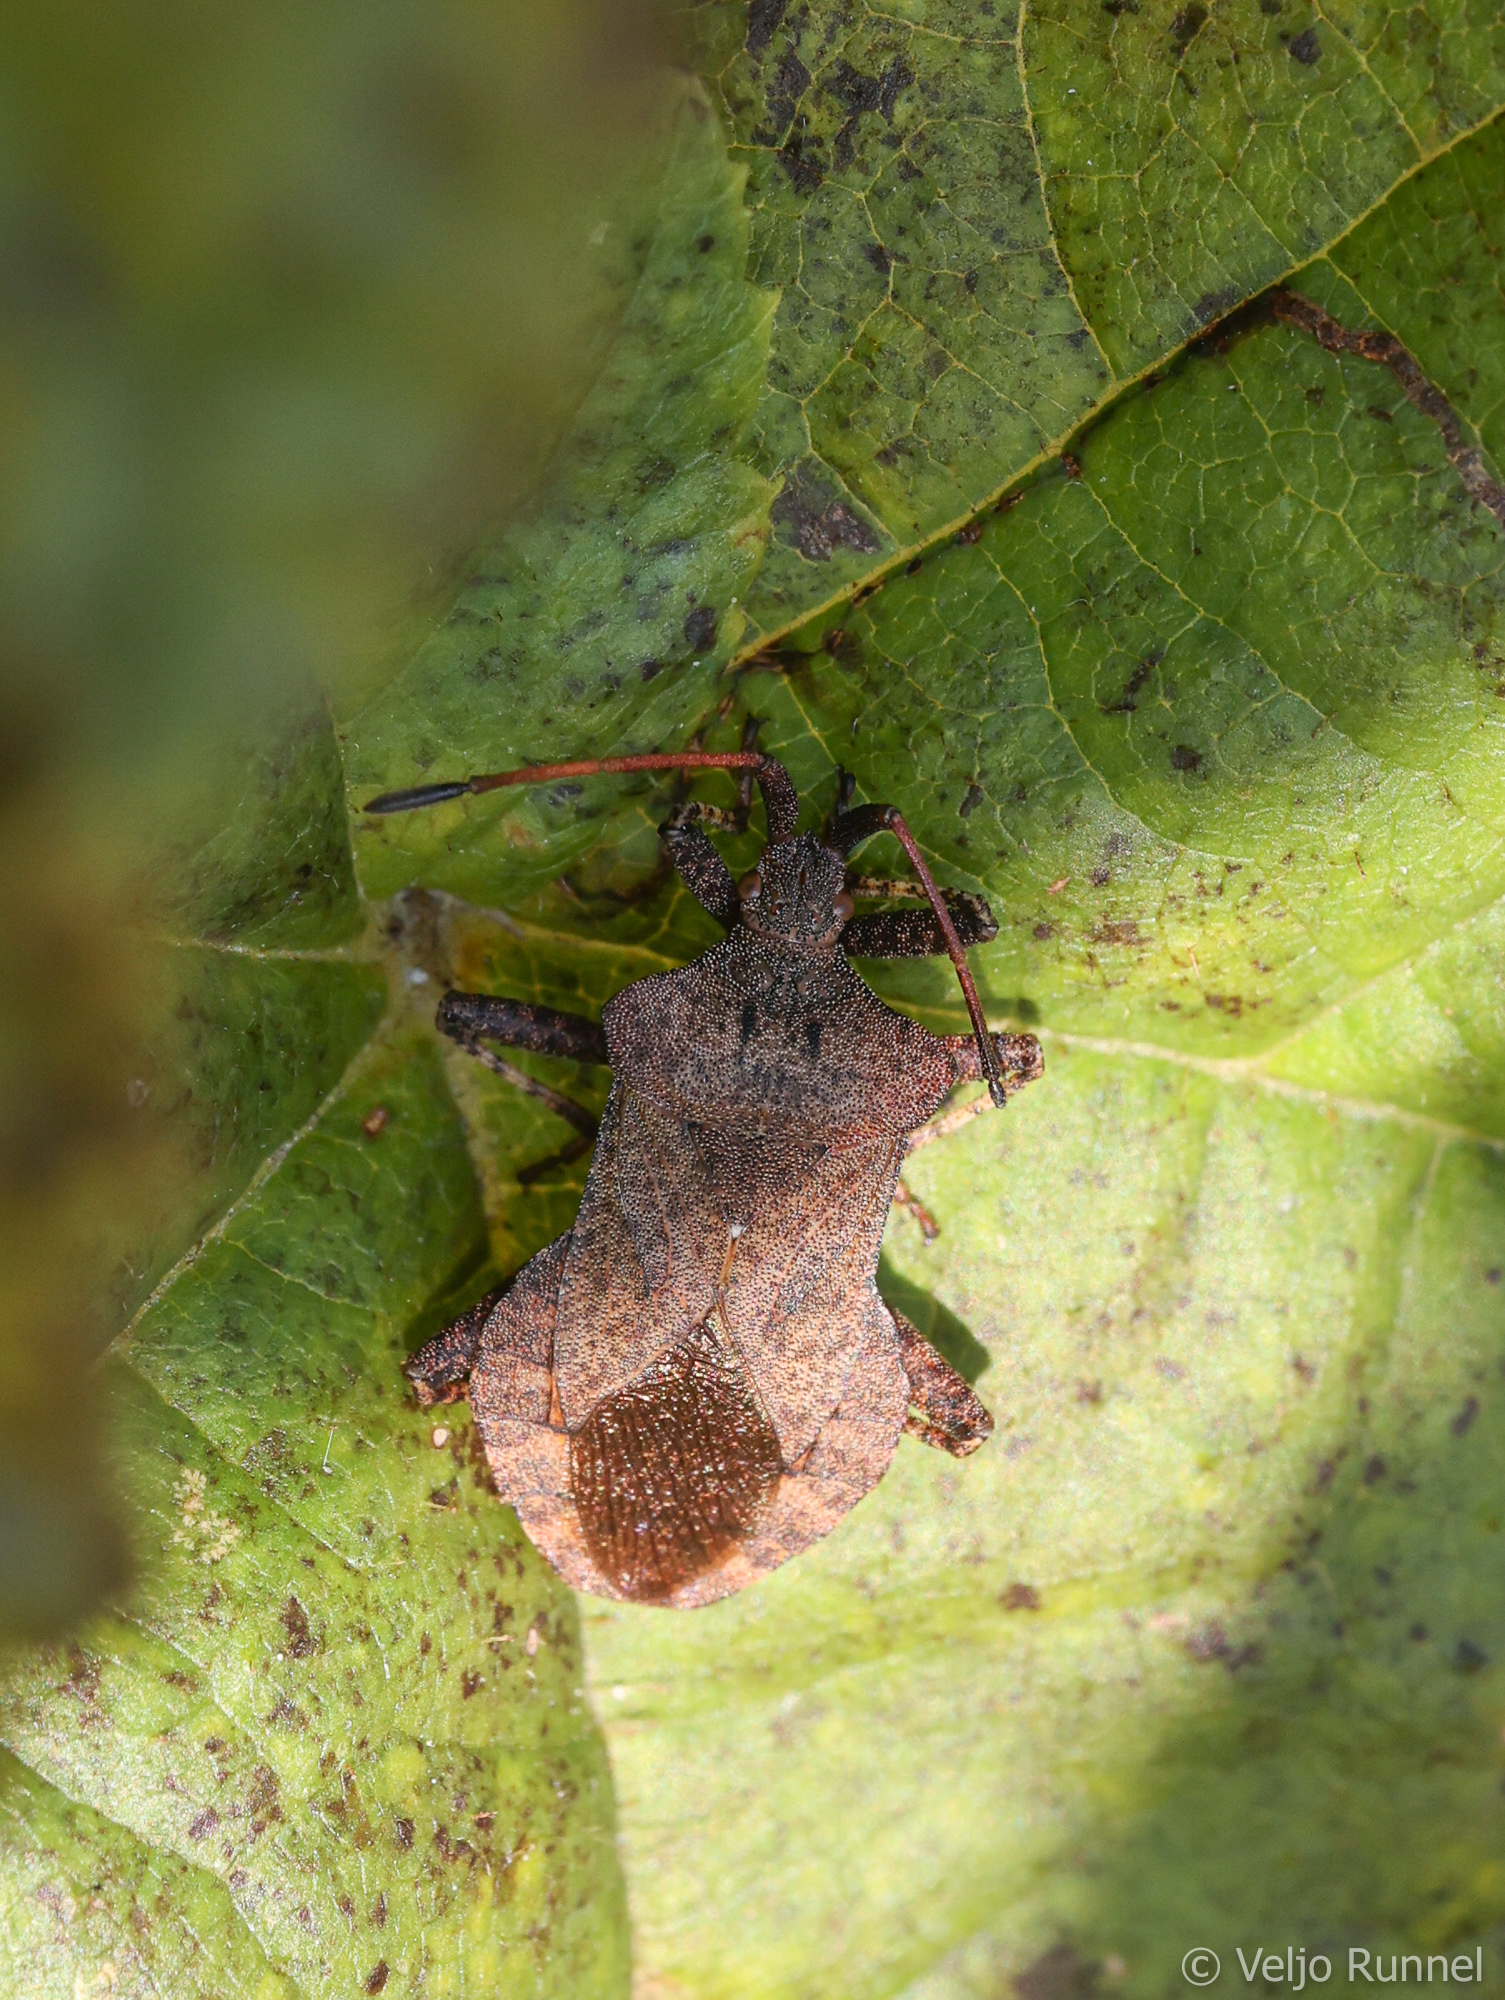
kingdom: Animalia
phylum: Arthropoda
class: Insecta
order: Hemiptera
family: Coreidae
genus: Coreus
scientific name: Coreus marginatus
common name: Dock bug
